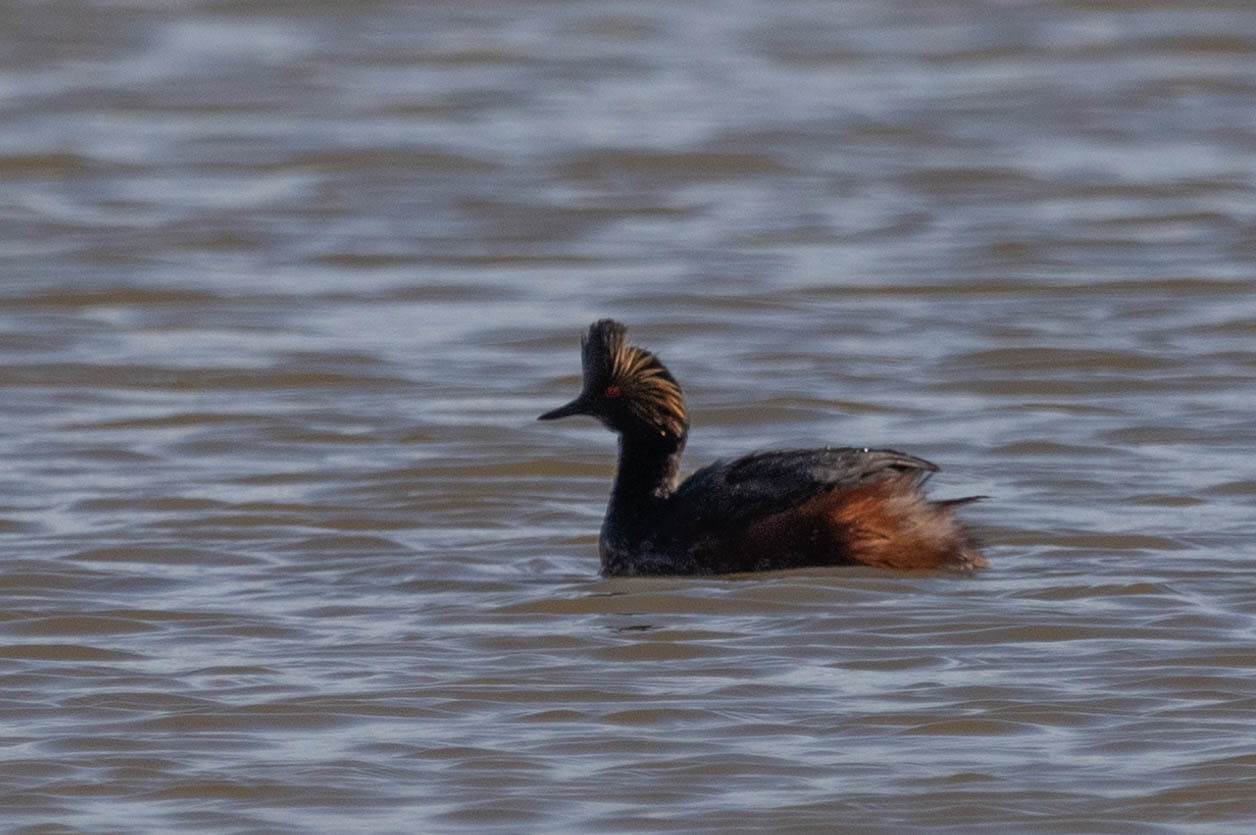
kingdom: Animalia
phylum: Chordata
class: Aves
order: Podicipediformes
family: Podicipedidae
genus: Podiceps
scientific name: Podiceps nigricollis
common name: Black-necked grebe
